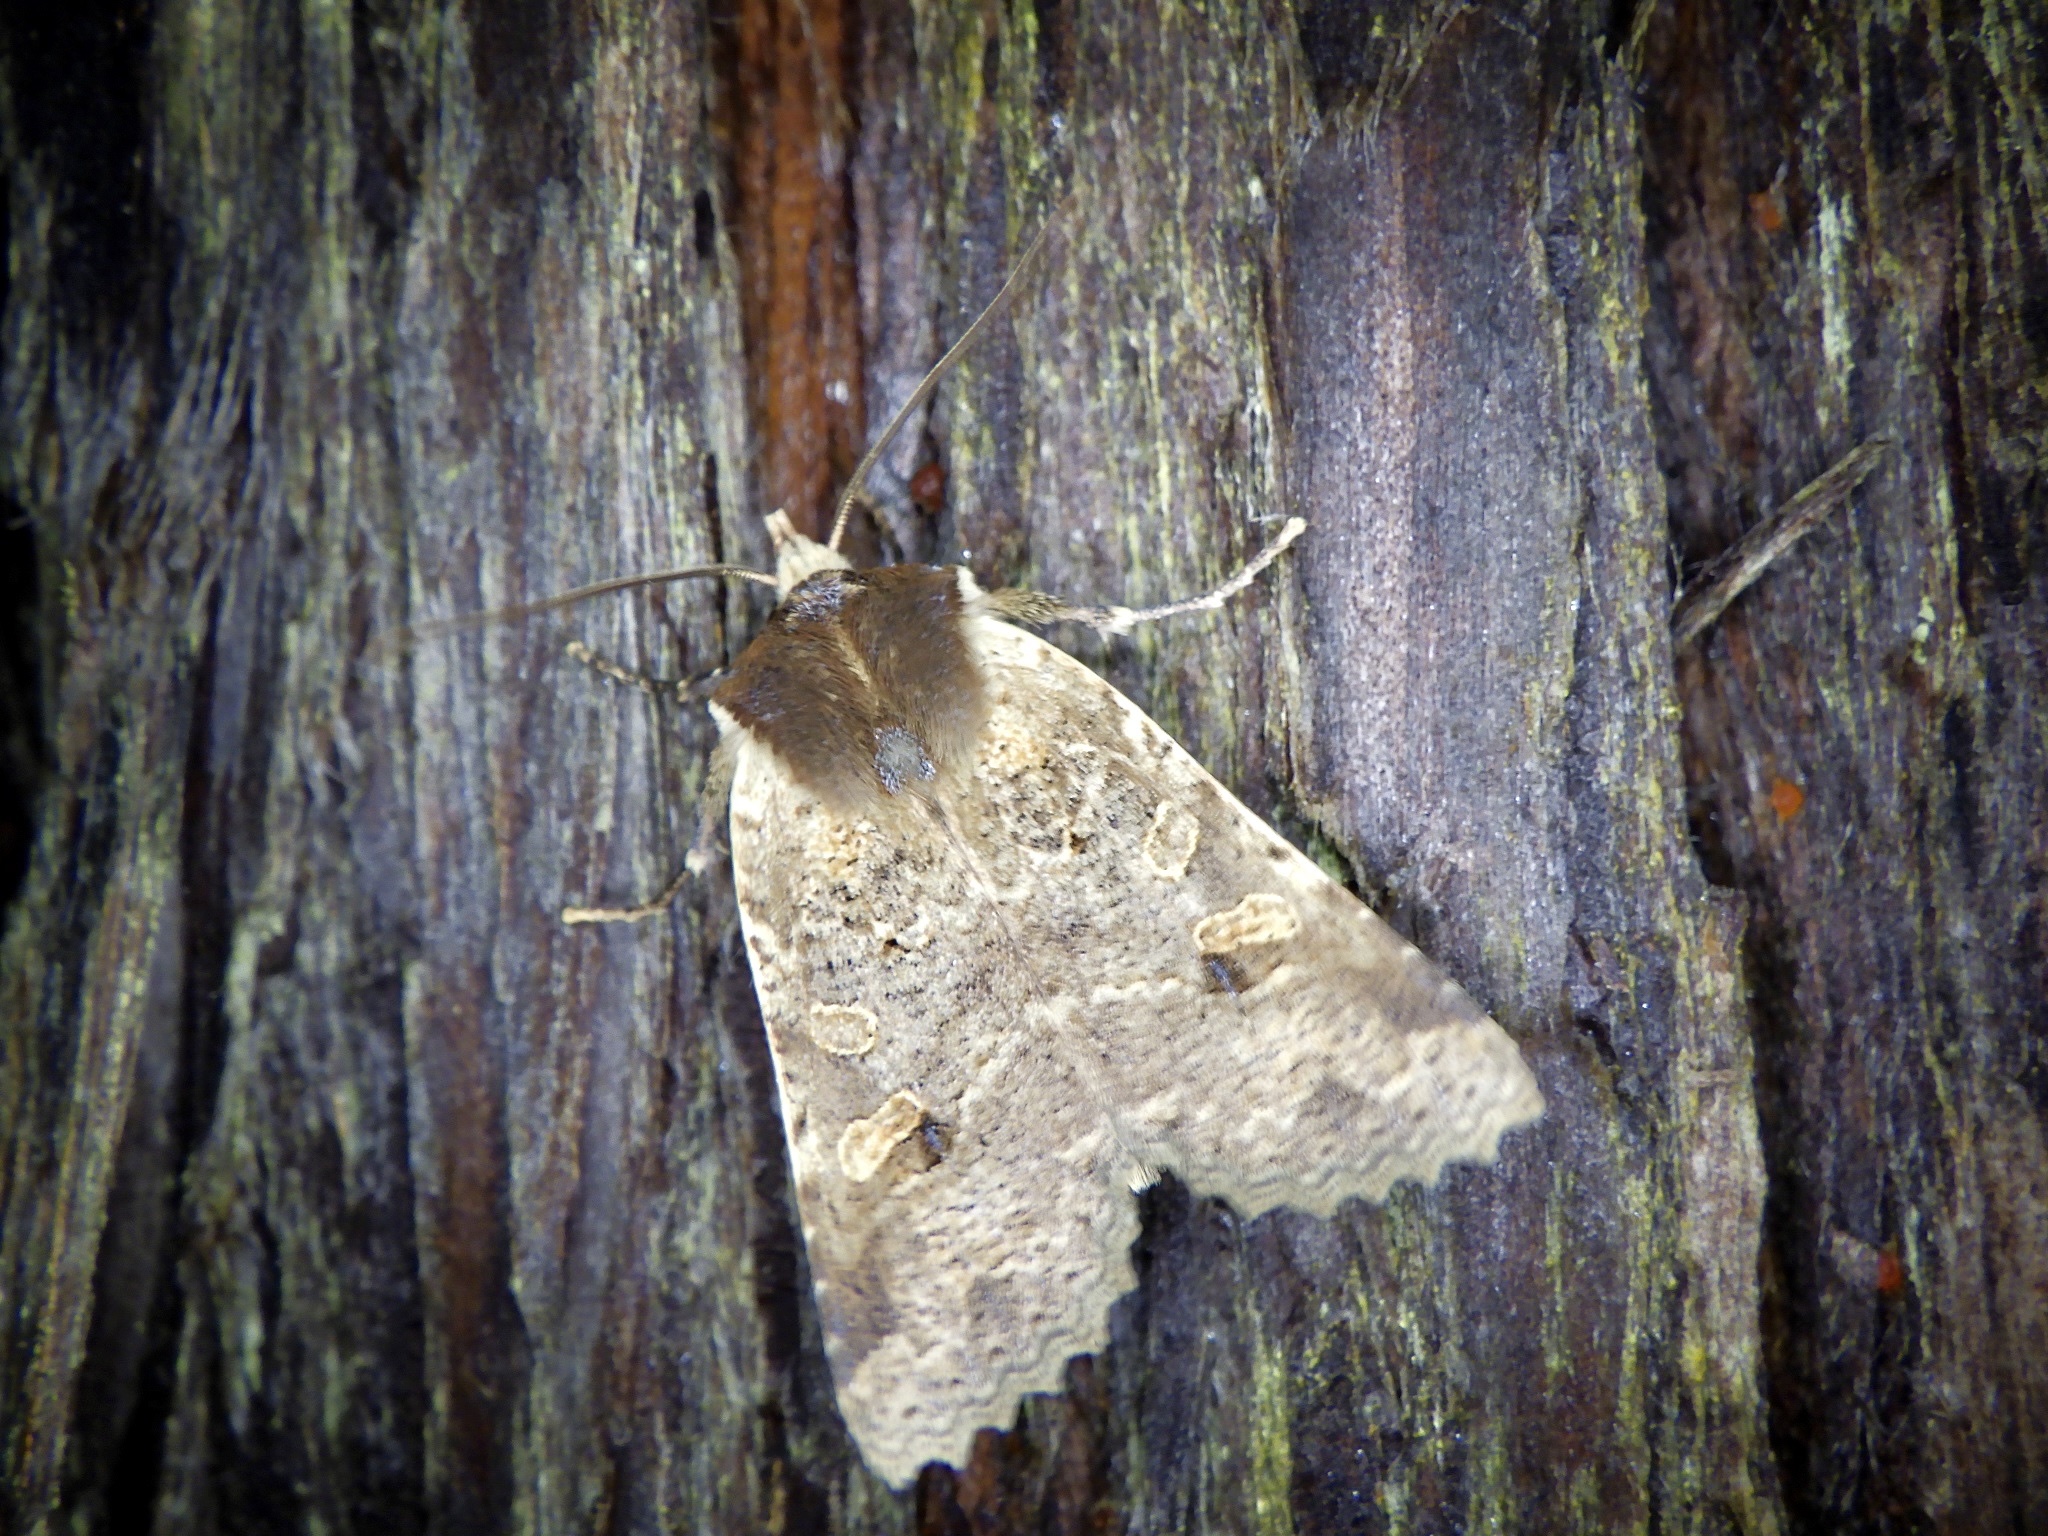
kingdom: Animalia
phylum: Arthropoda
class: Insecta
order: Lepidoptera
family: Noctuidae
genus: Rhynchaglaea
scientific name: Rhynchaglaea scitula
